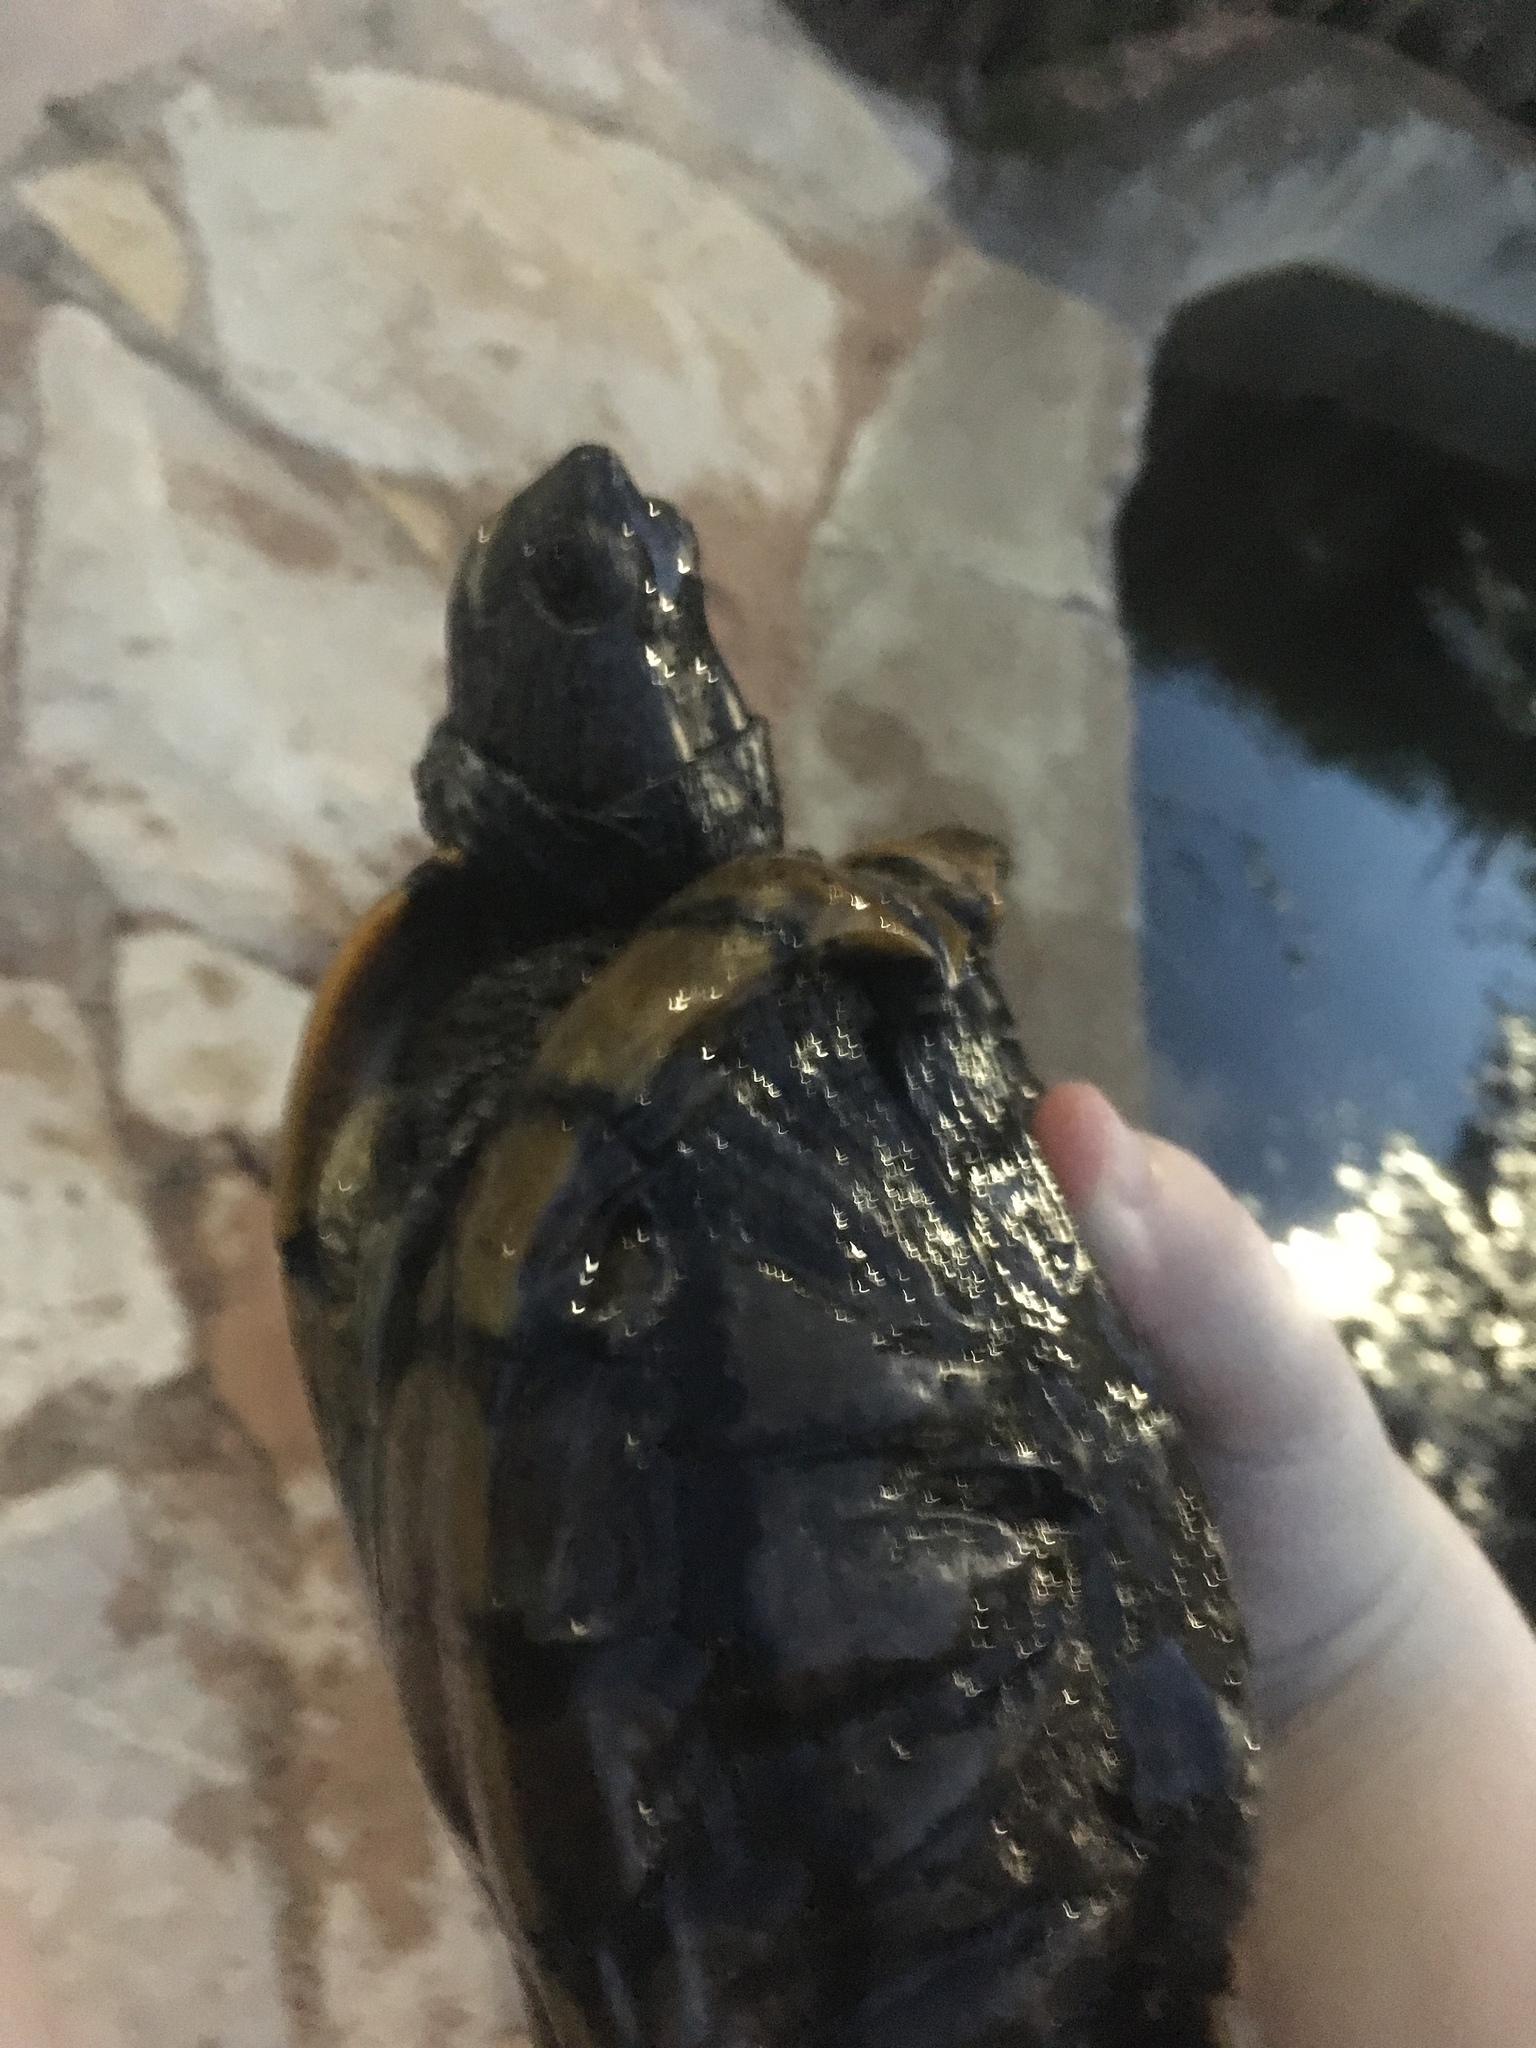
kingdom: Animalia
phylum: Chordata
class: Testudines
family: Emydidae
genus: Trachemys
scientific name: Trachemys scripta
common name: Slider
